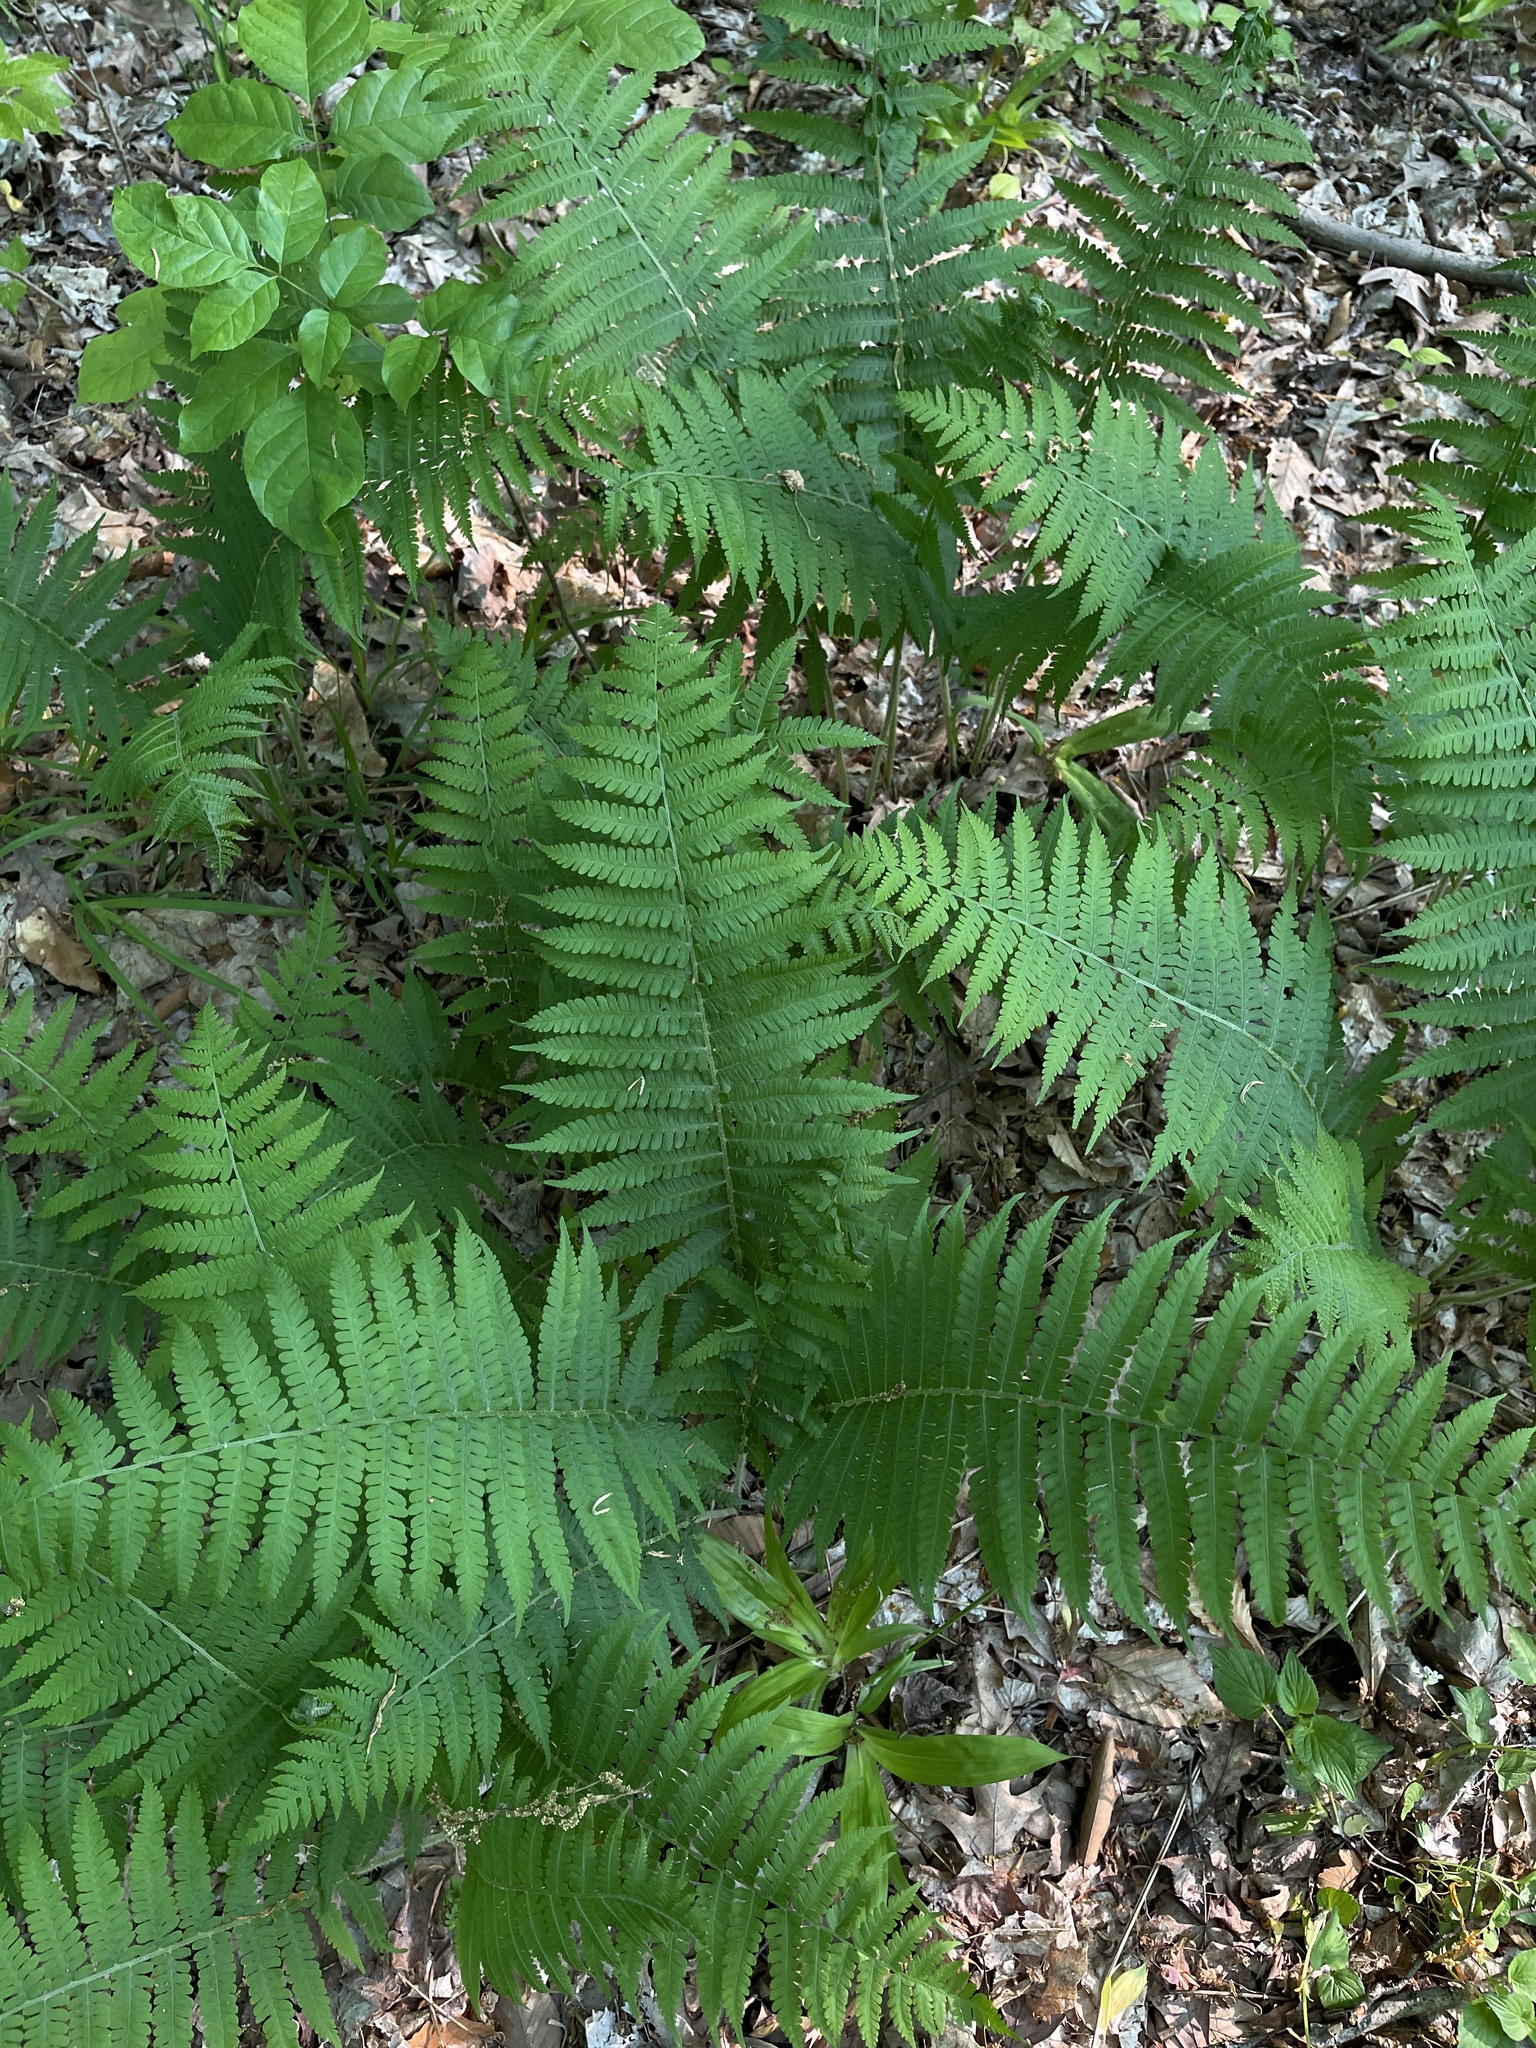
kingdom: Plantae
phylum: Tracheophyta
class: Polypodiopsida
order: Polypodiales
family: Athyriaceae
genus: Deparia
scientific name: Deparia acrostichoides
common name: Silver false spleenwort
